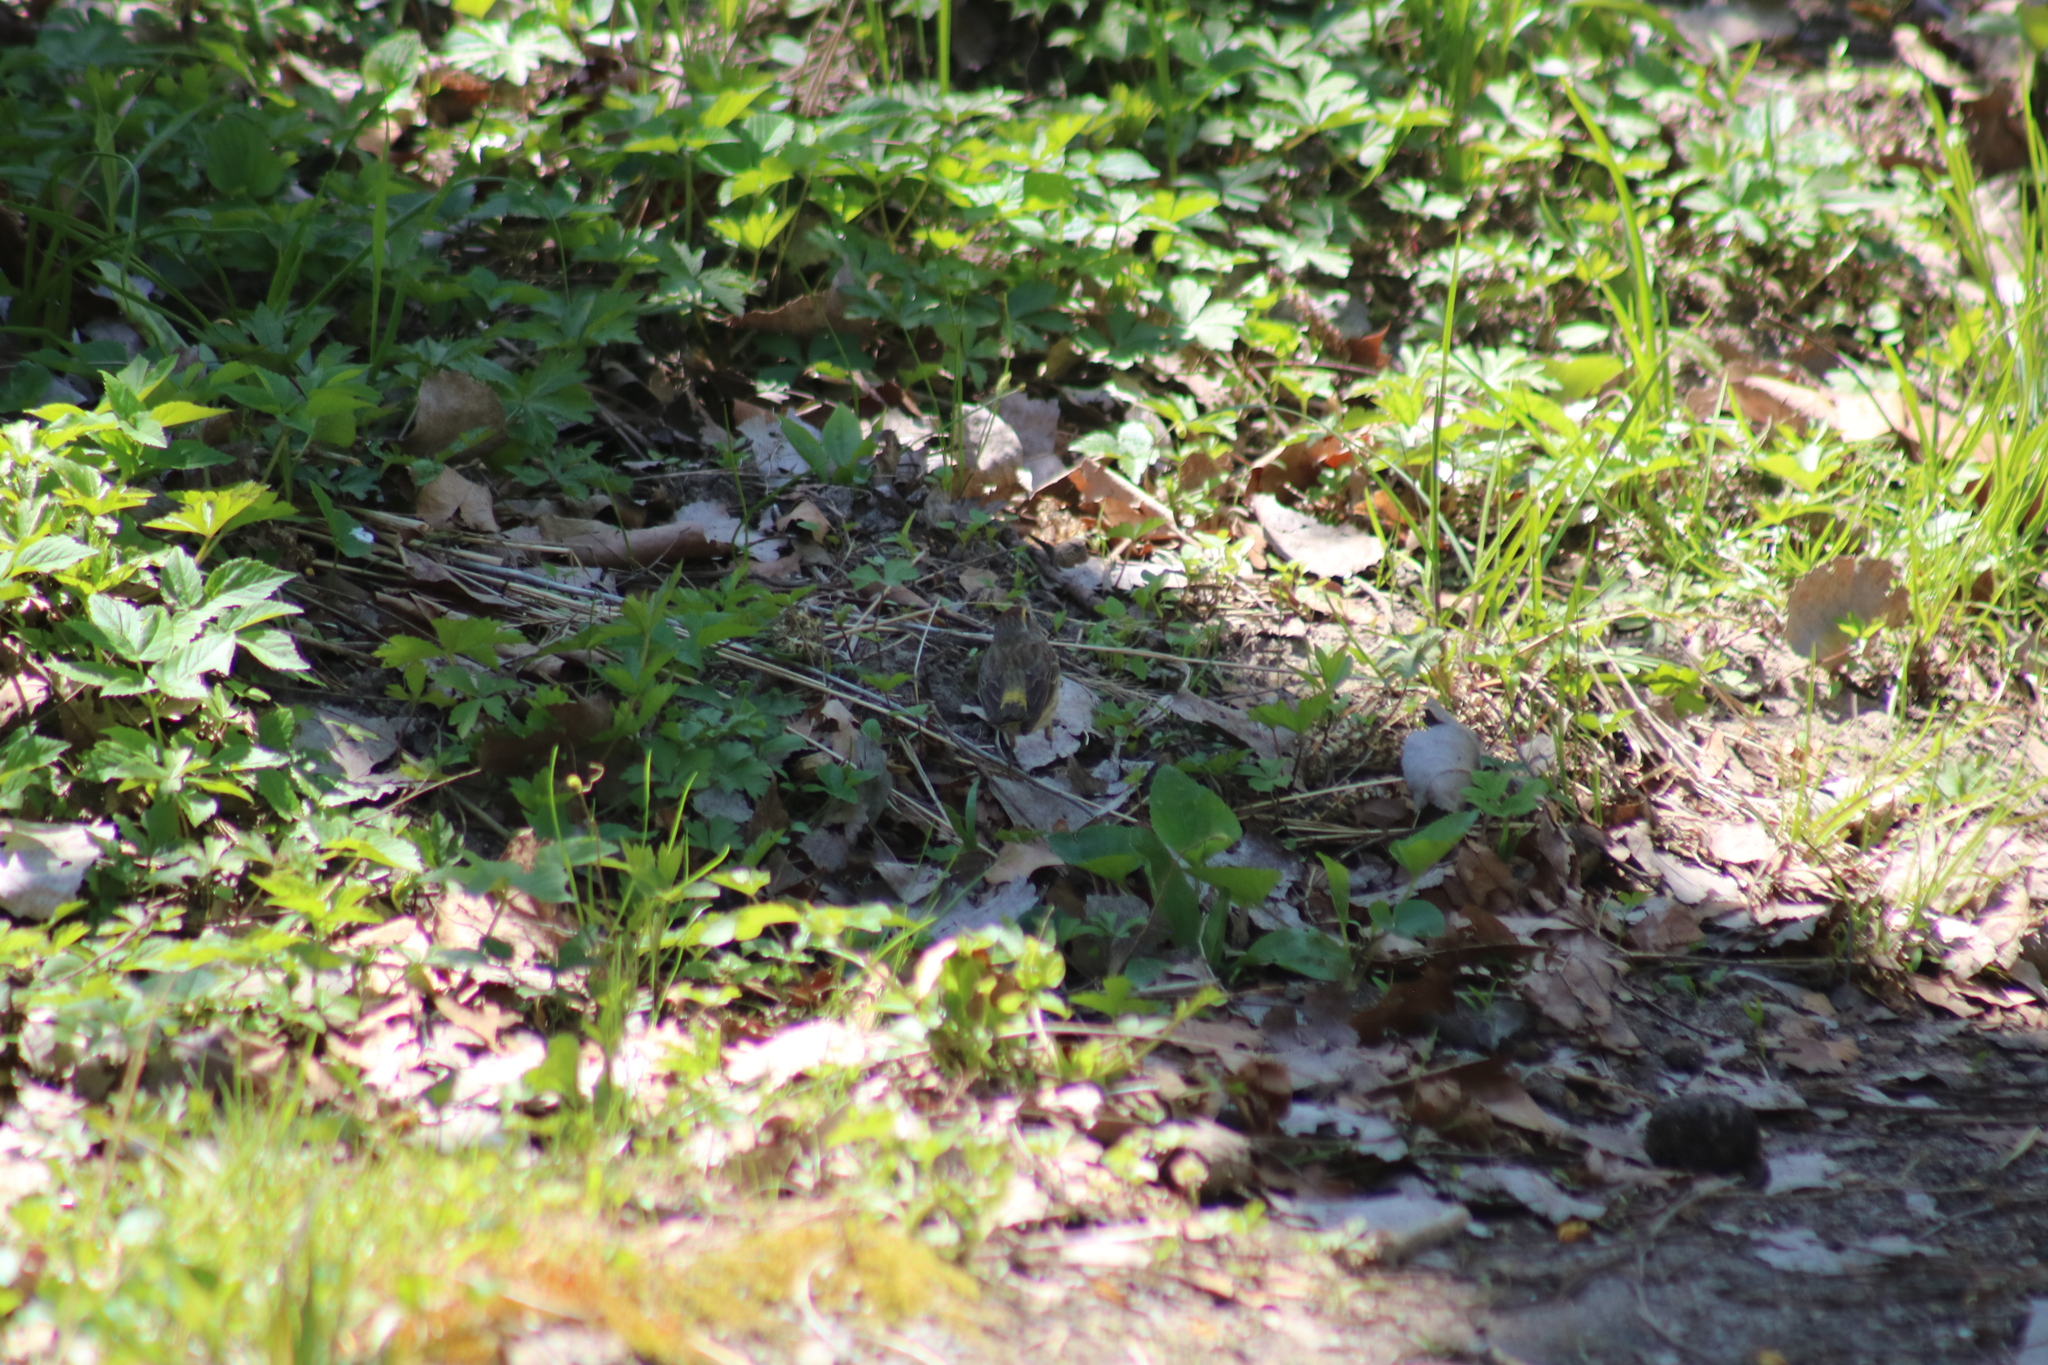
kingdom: Animalia
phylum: Chordata
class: Aves
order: Passeriformes
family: Parulidae
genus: Setophaga
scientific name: Setophaga palmarum
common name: Palm warbler
